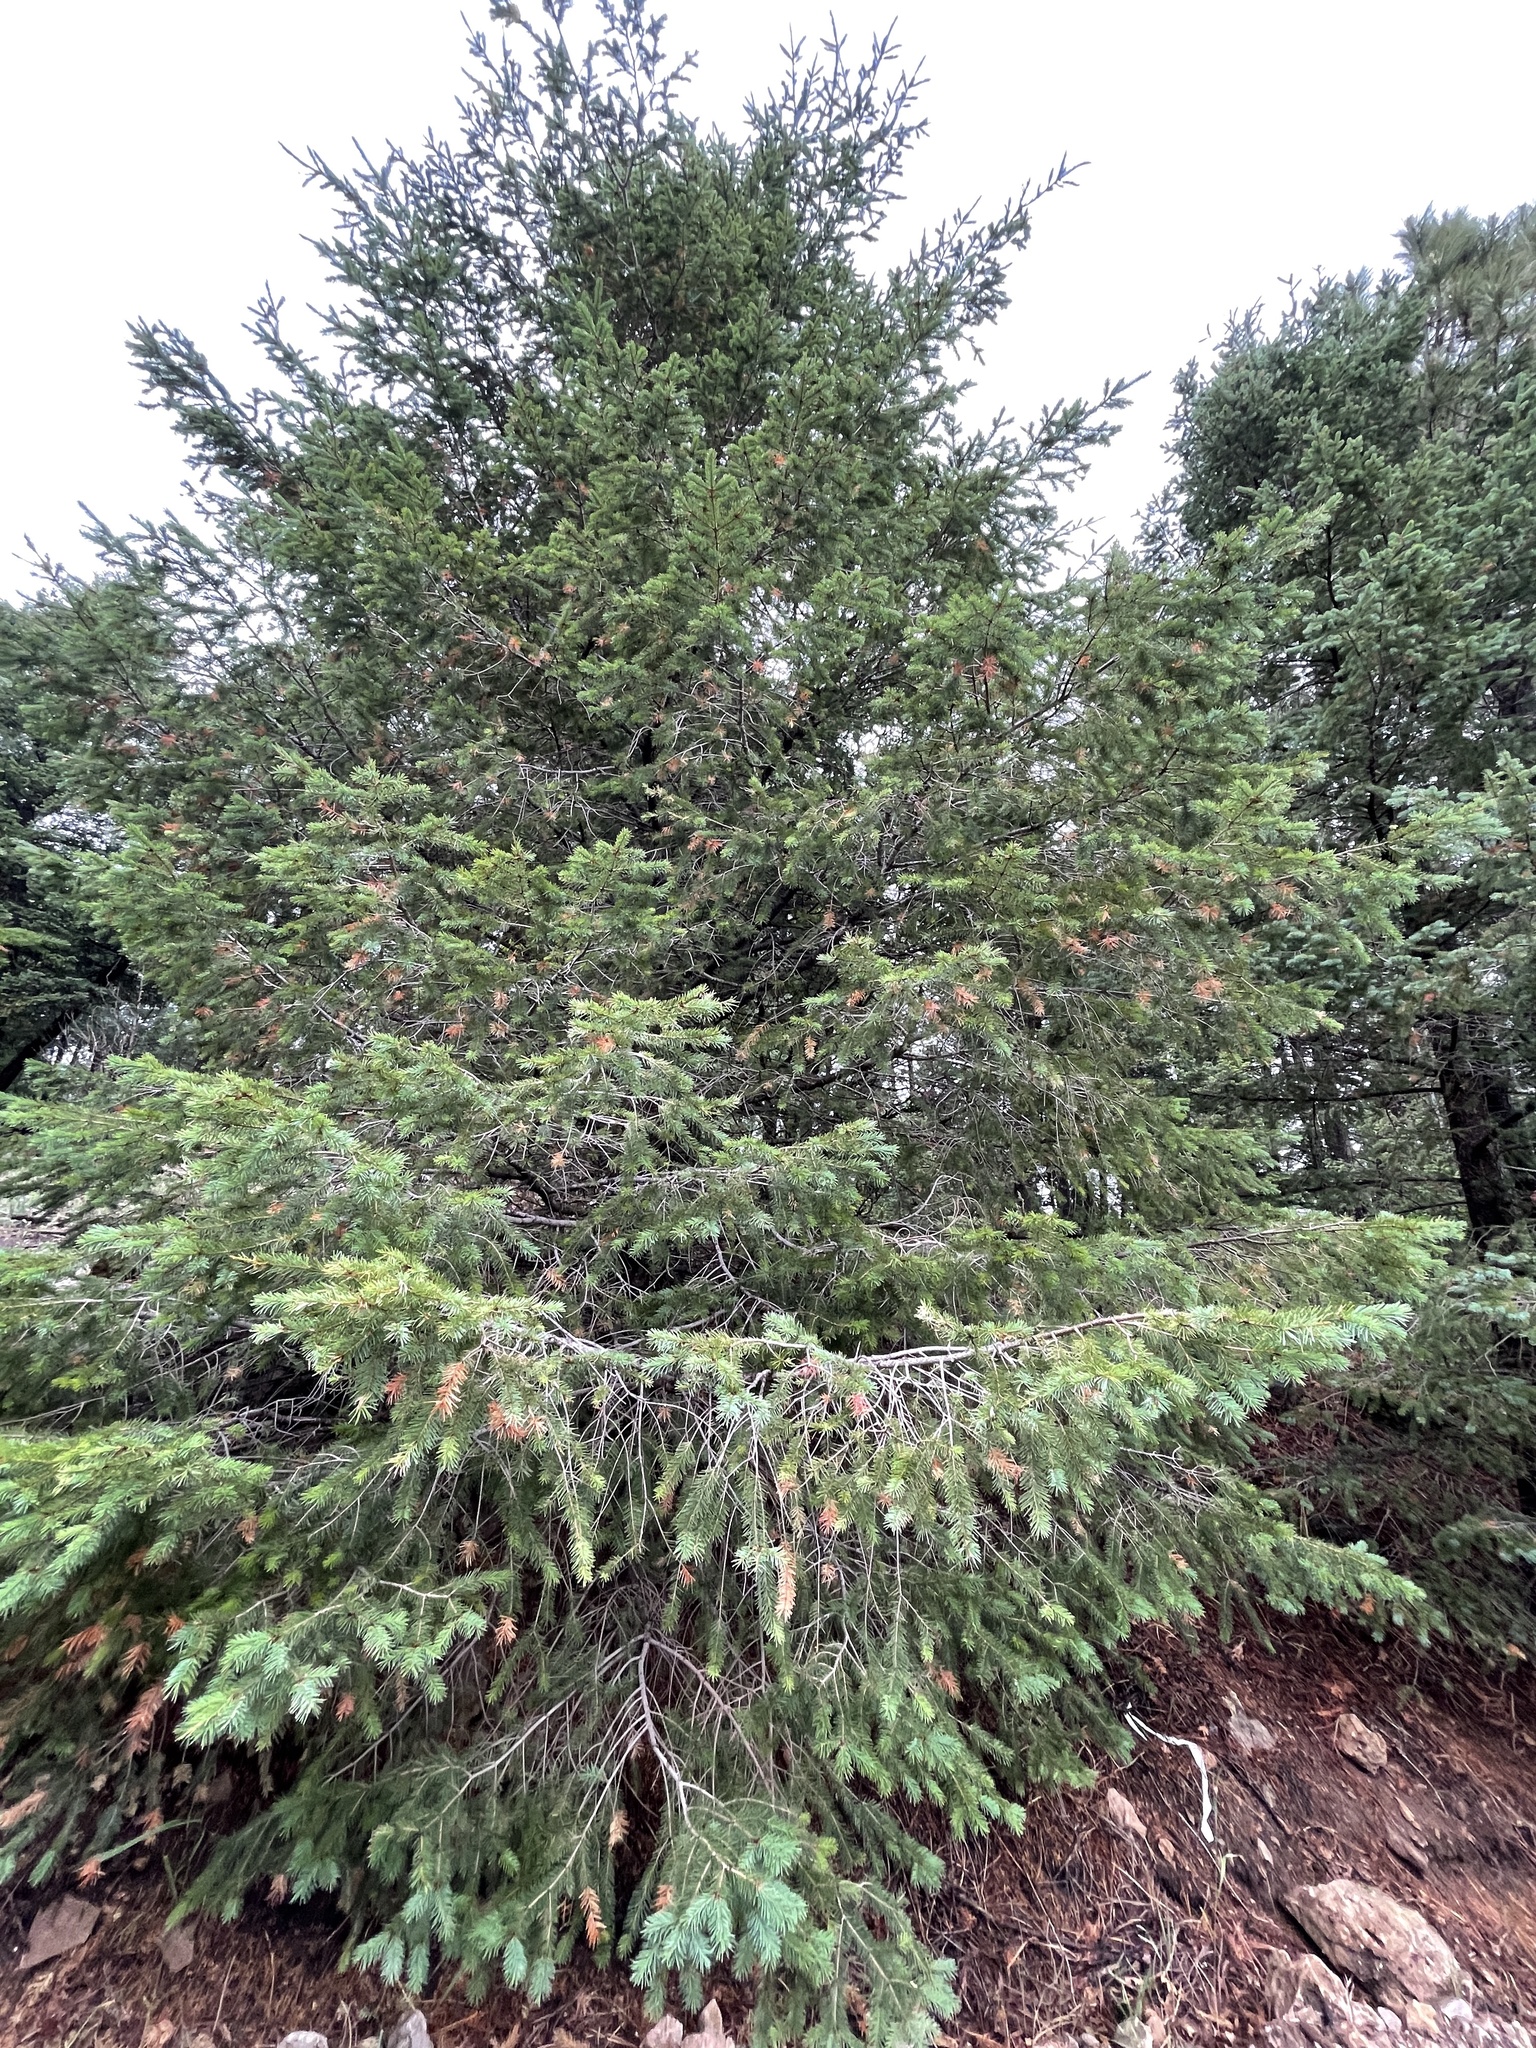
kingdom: Plantae
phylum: Tracheophyta
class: Pinopsida
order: Pinales
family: Pinaceae
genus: Pseudotsuga
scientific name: Pseudotsuga menziesii
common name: Douglas fir
